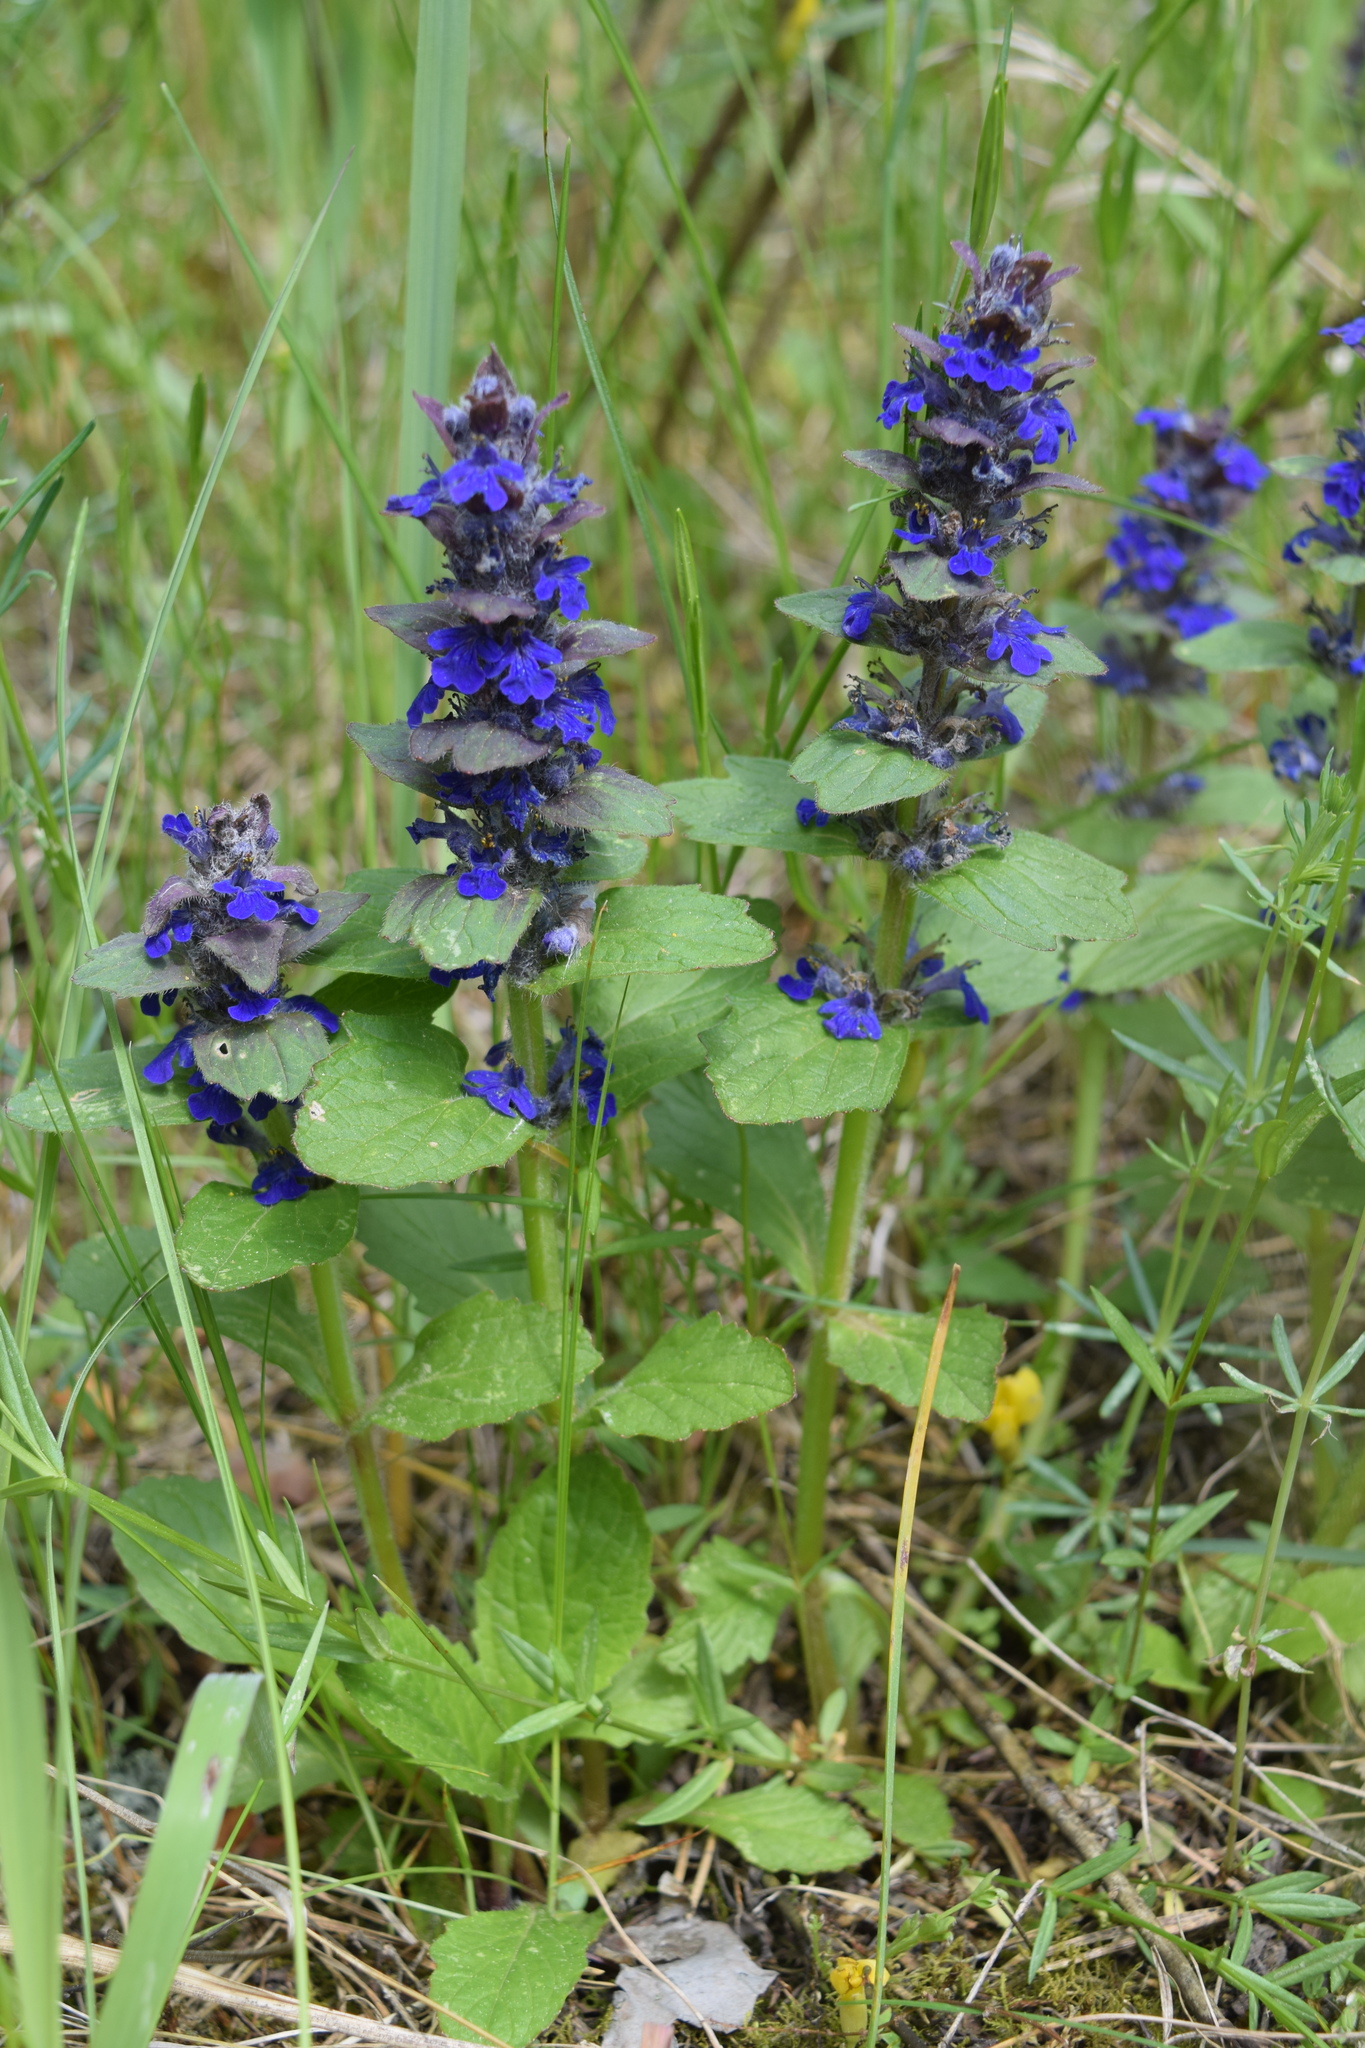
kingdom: Plantae
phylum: Tracheophyta
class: Magnoliopsida
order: Lamiales
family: Lamiaceae
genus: Ajuga
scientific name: Ajuga genevensis
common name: Blue bugle
